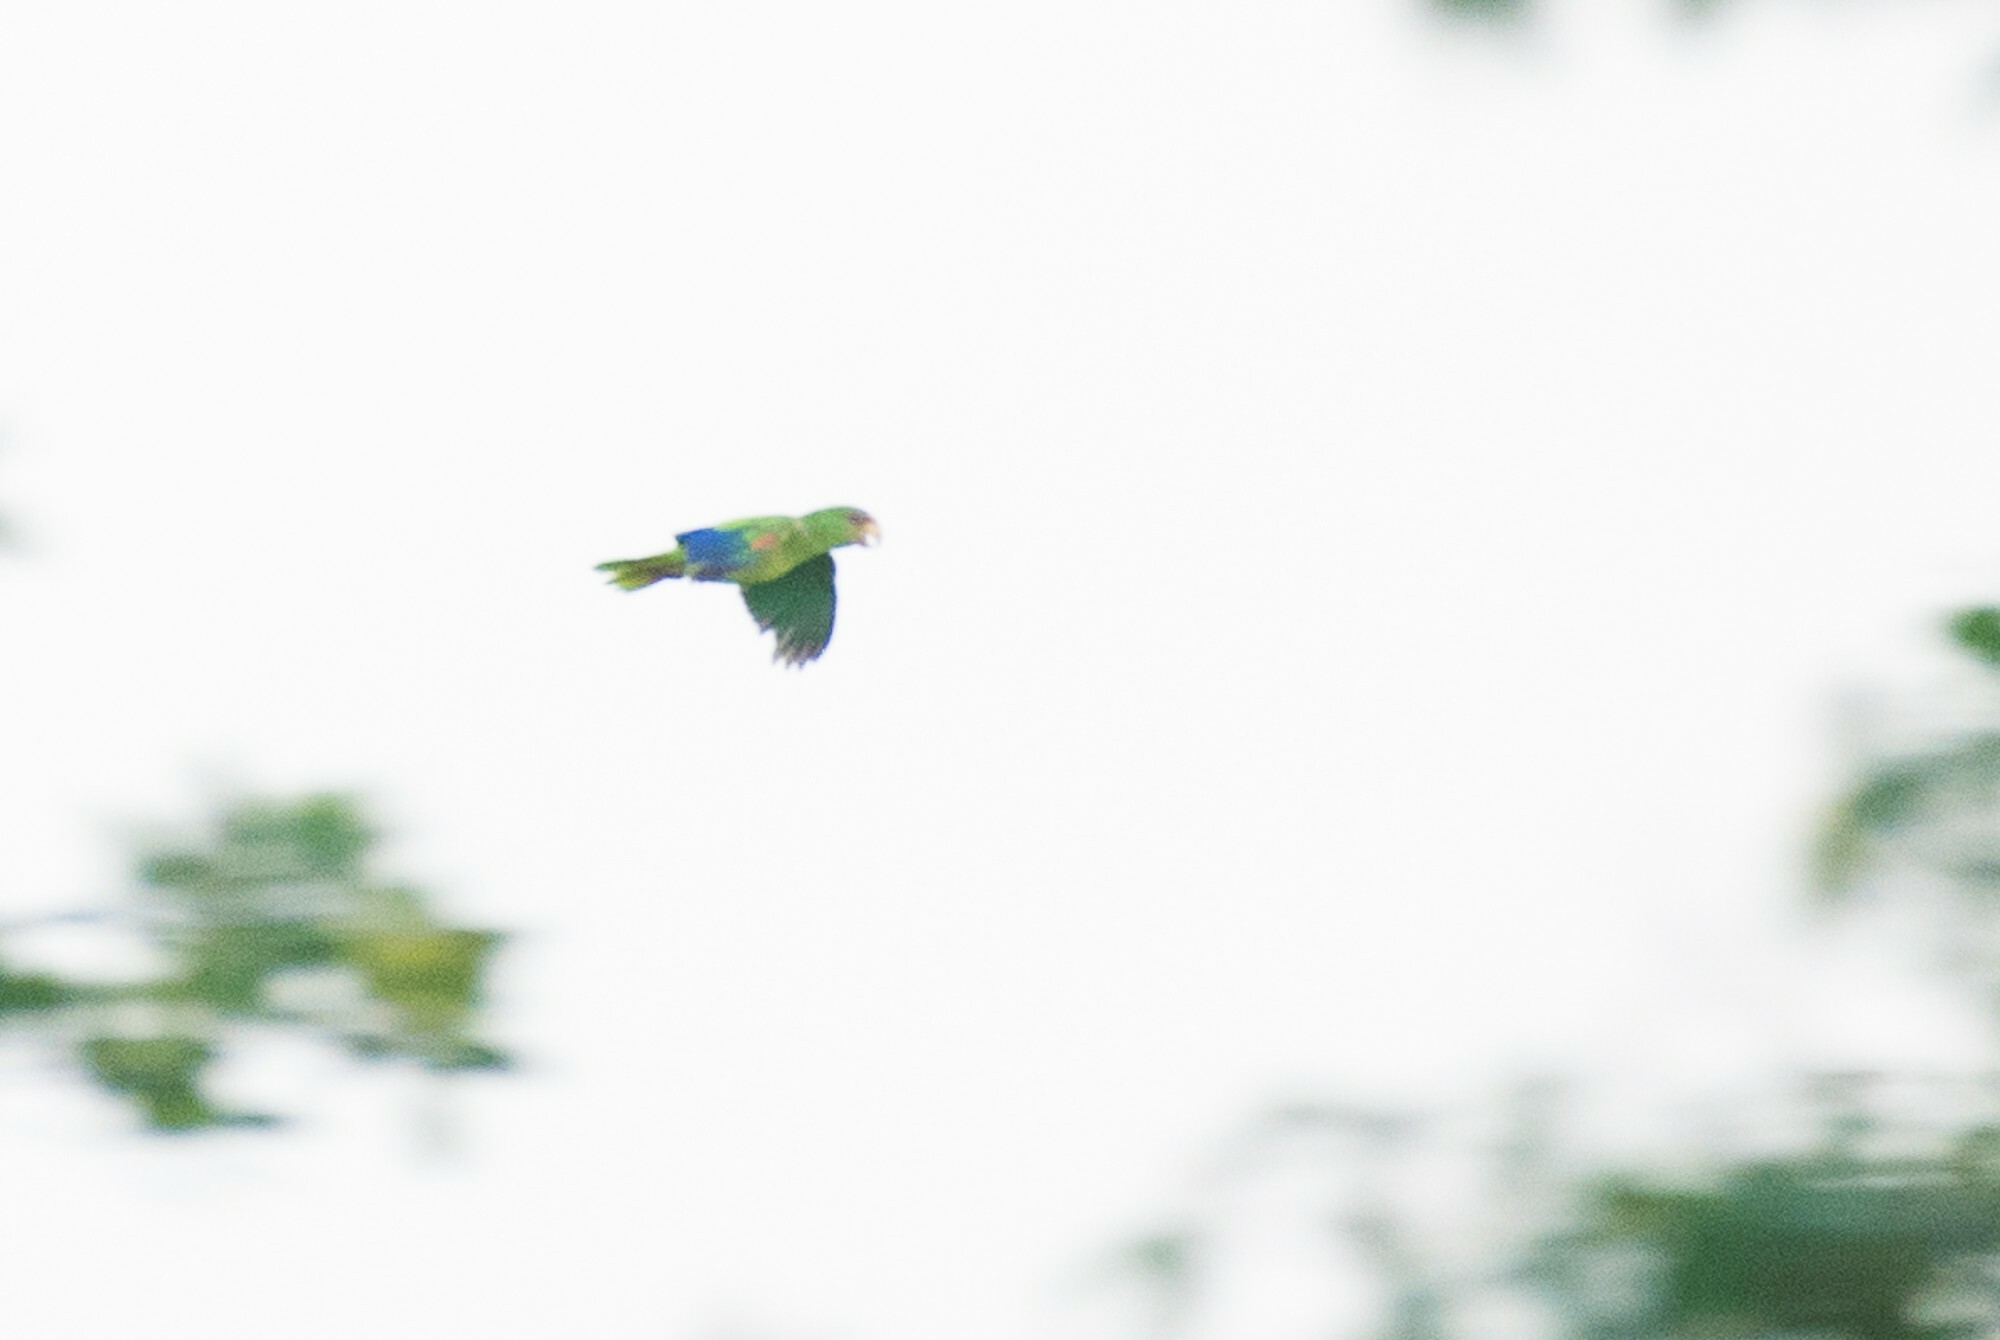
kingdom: Animalia
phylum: Chordata
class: Aves
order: Psittaciformes
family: Psittacidae
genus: Amazona
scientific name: Amazona albifrons
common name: White-fronted amazon
